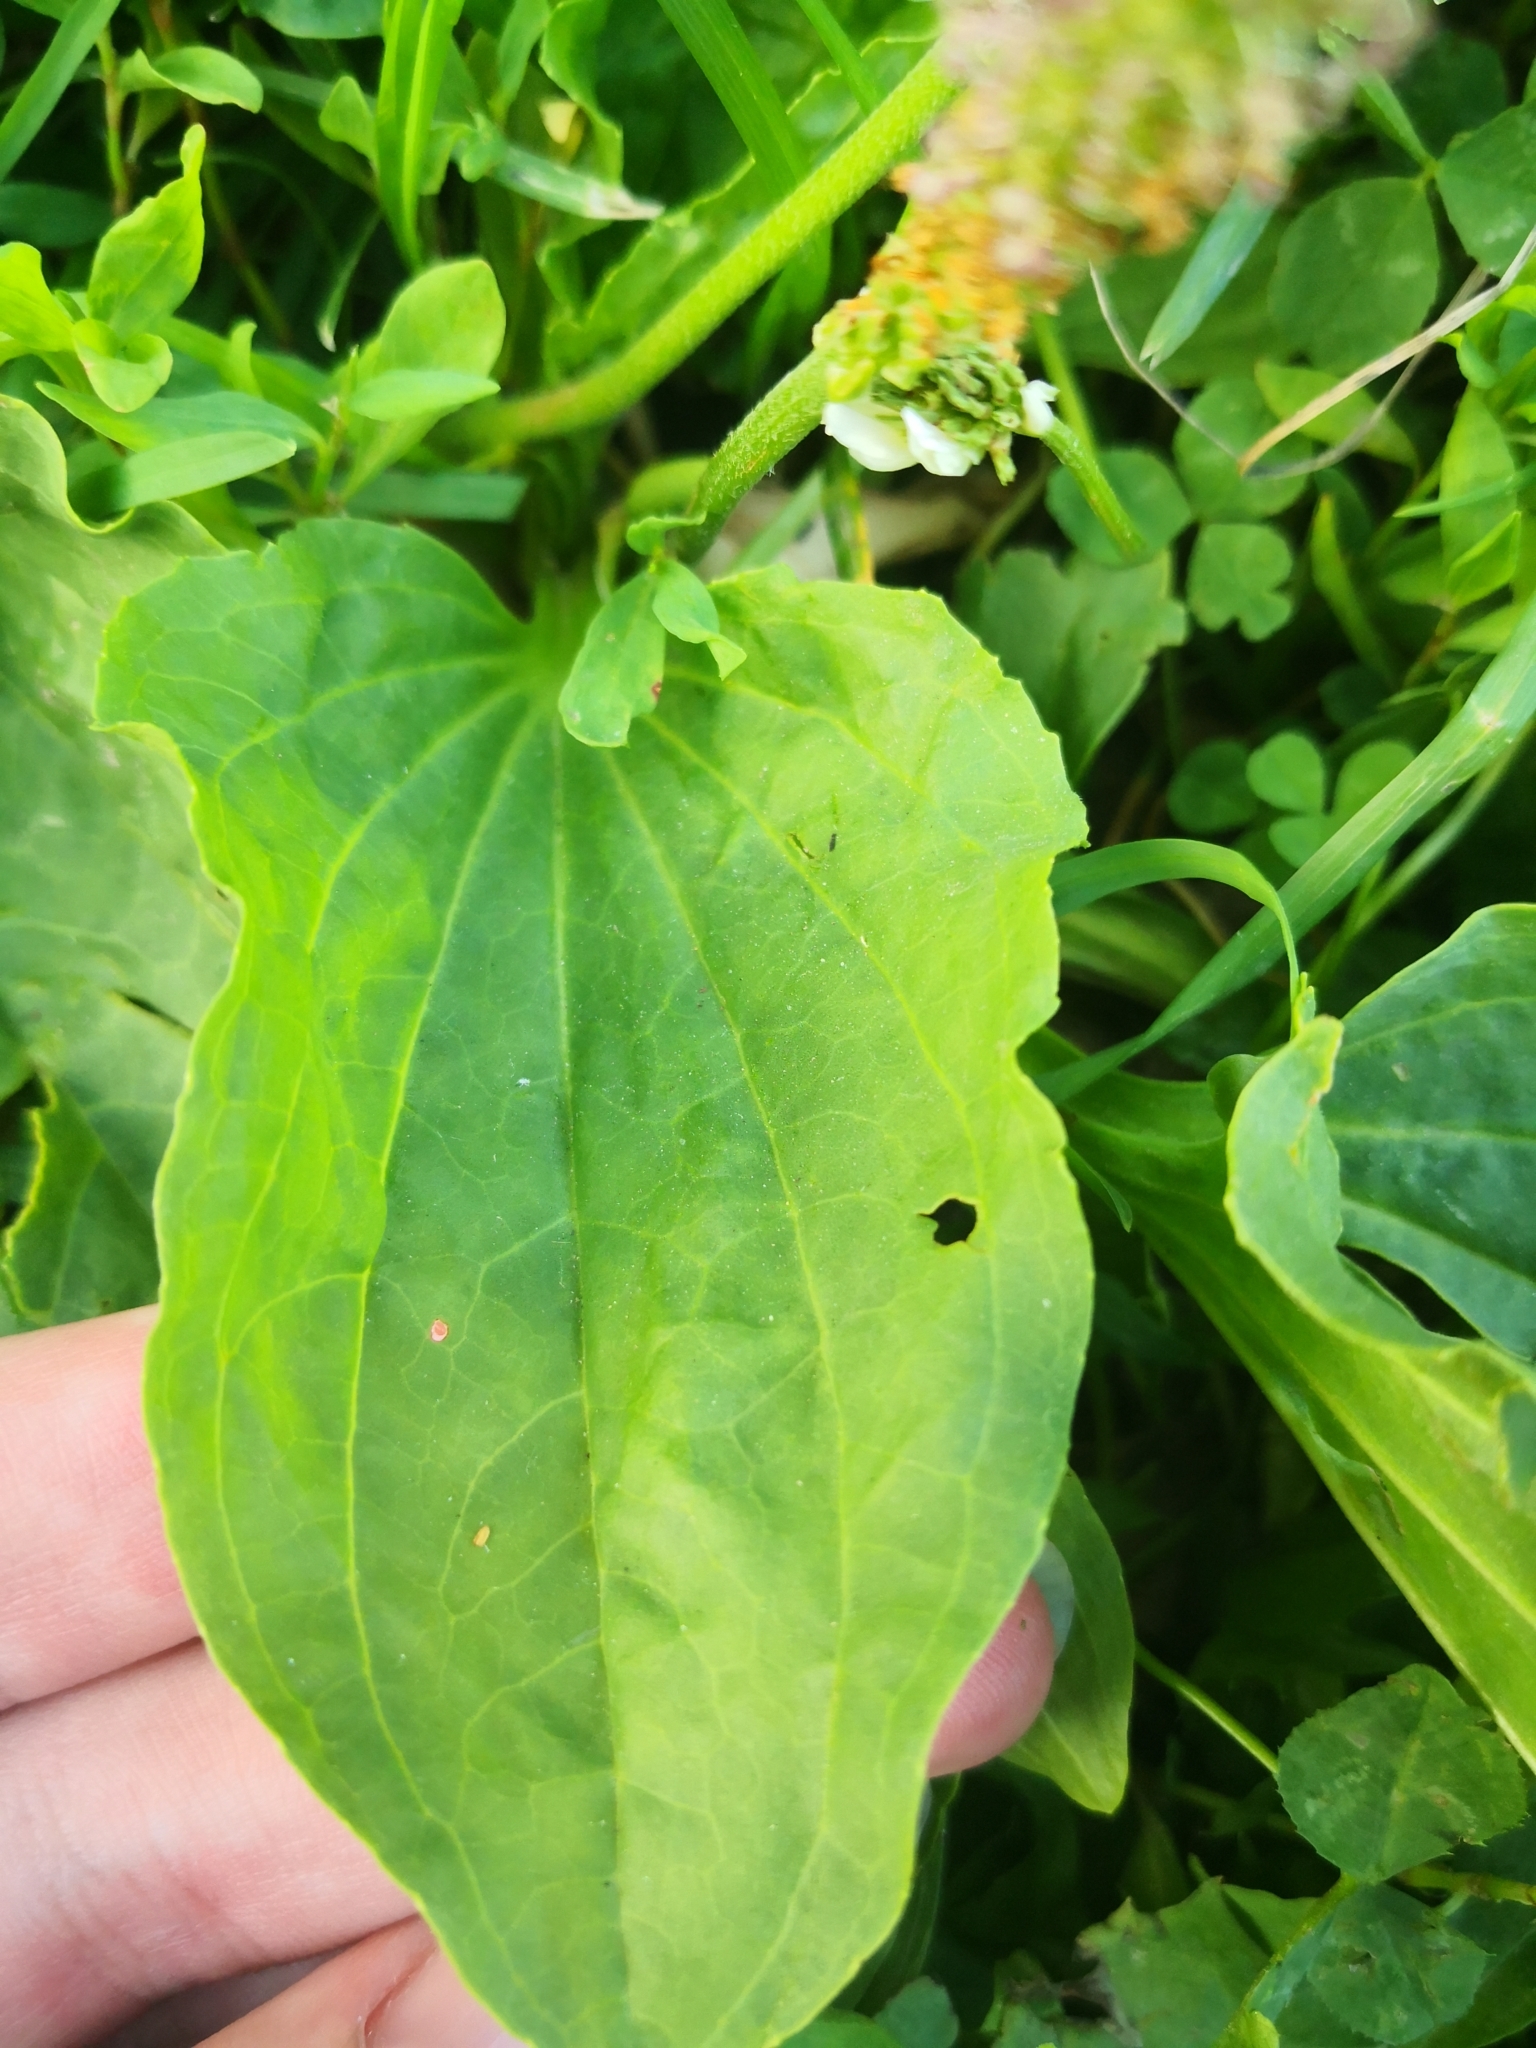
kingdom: Plantae
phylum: Tracheophyta
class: Magnoliopsida
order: Lamiales
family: Plantaginaceae
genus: Plantago
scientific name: Plantago major
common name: Common plantain
